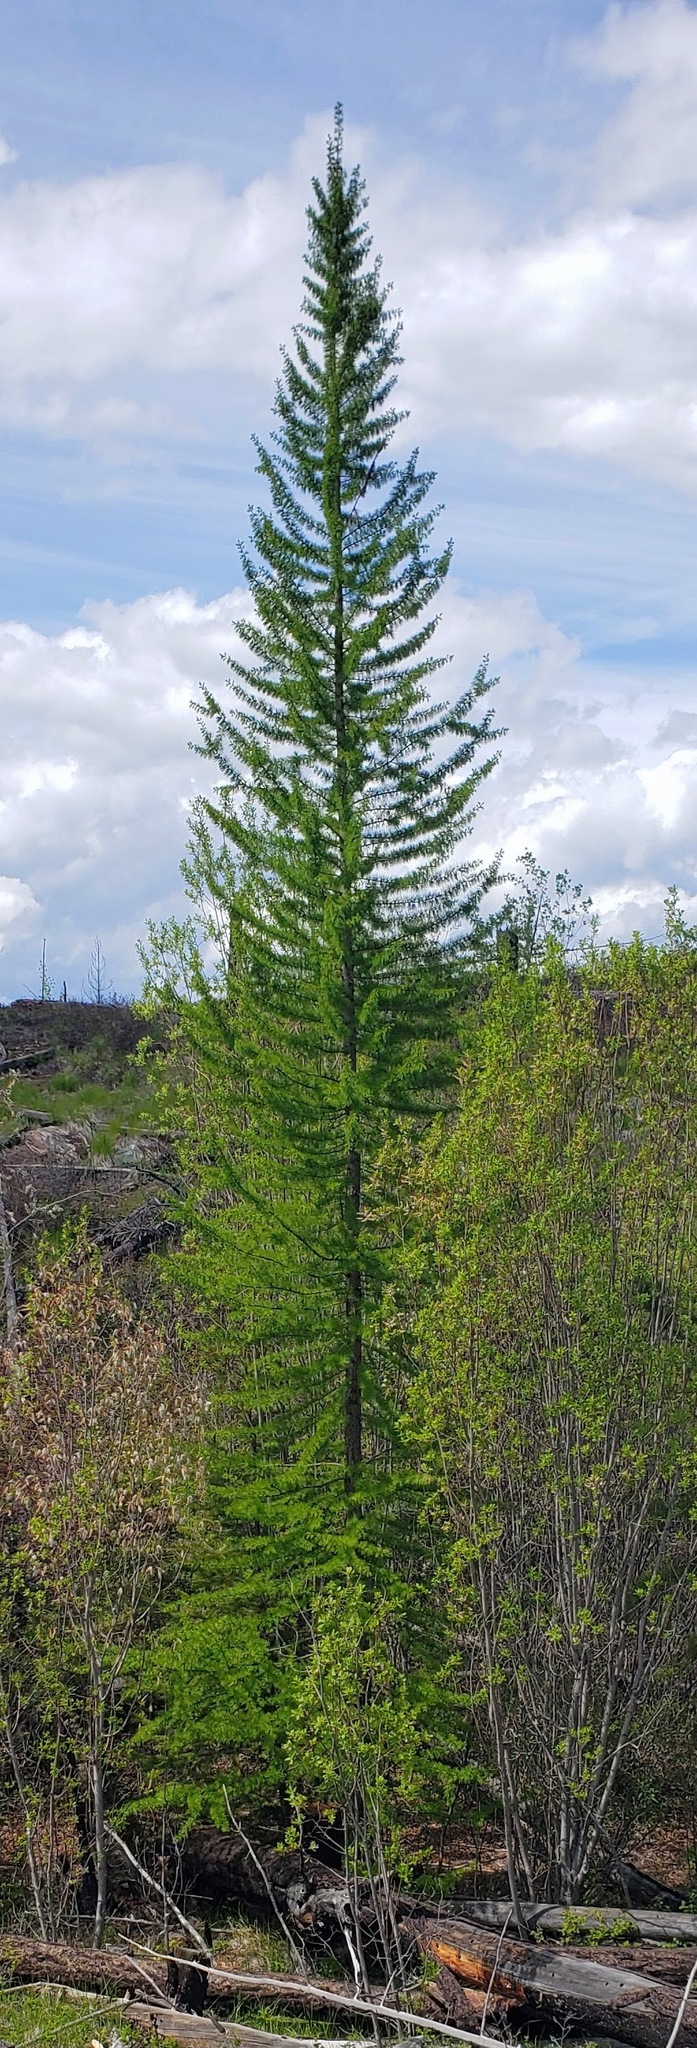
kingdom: Plantae
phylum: Tracheophyta
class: Pinopsida
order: Pinales
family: Pinaceae
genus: Larix
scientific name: Larix occidentalis
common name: Western larch
